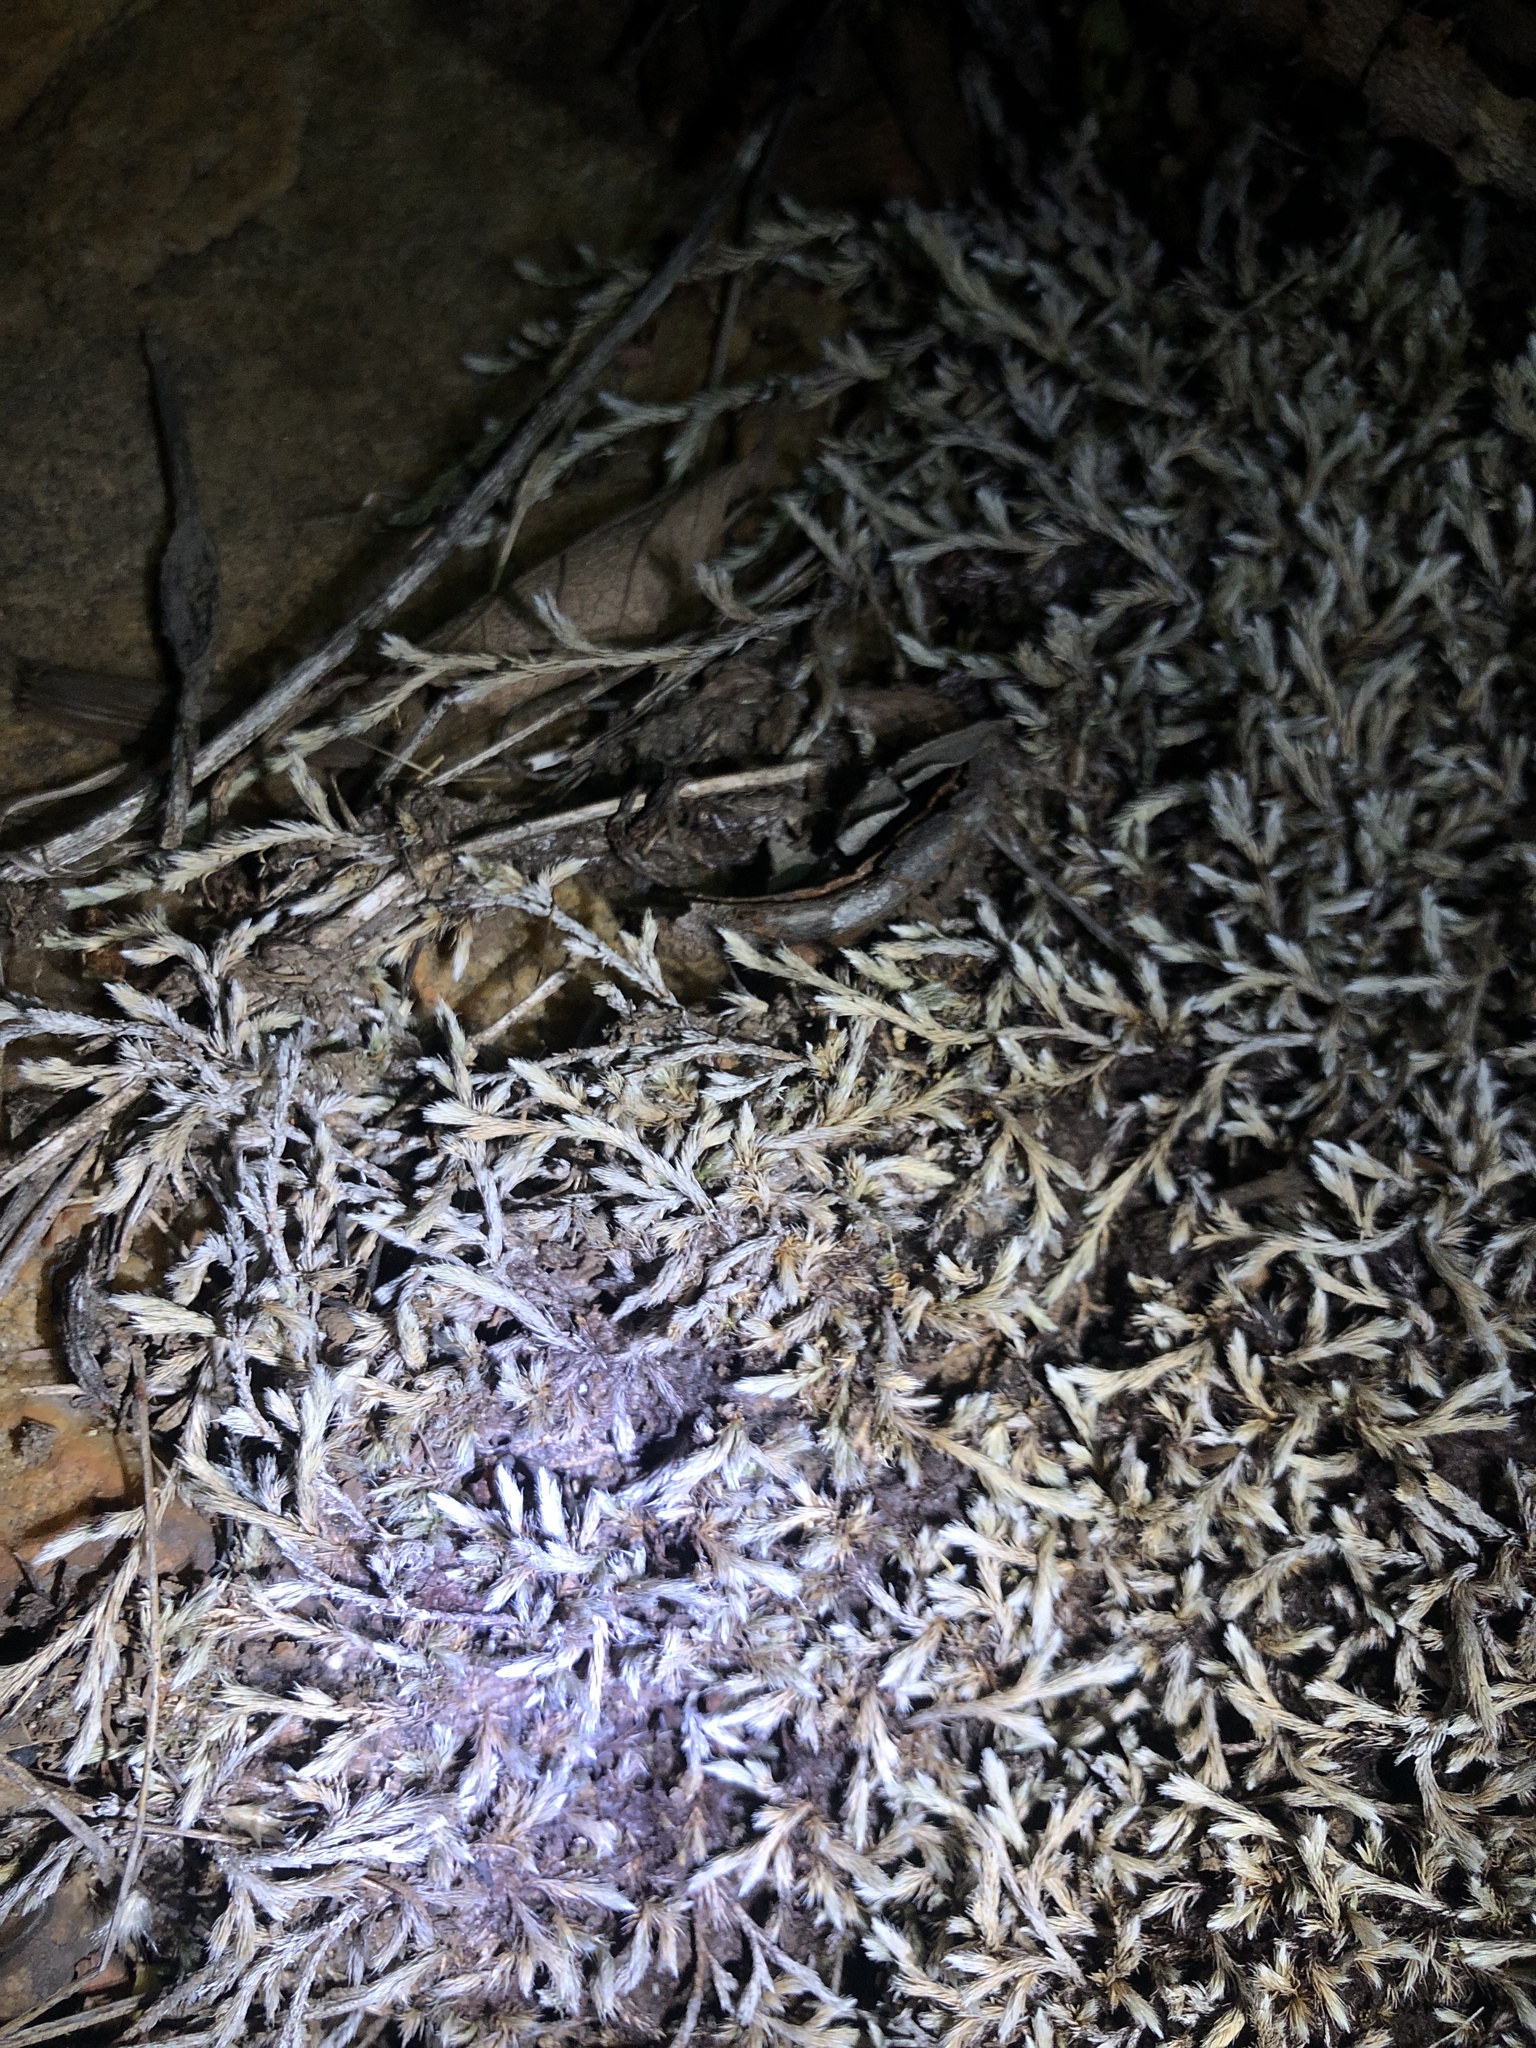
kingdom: Plantae
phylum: Tracheophyta
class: Lycopodiopsida
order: Selaginellales
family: Selaginellaceae
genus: Selaginella
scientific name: Selaginella dregei
